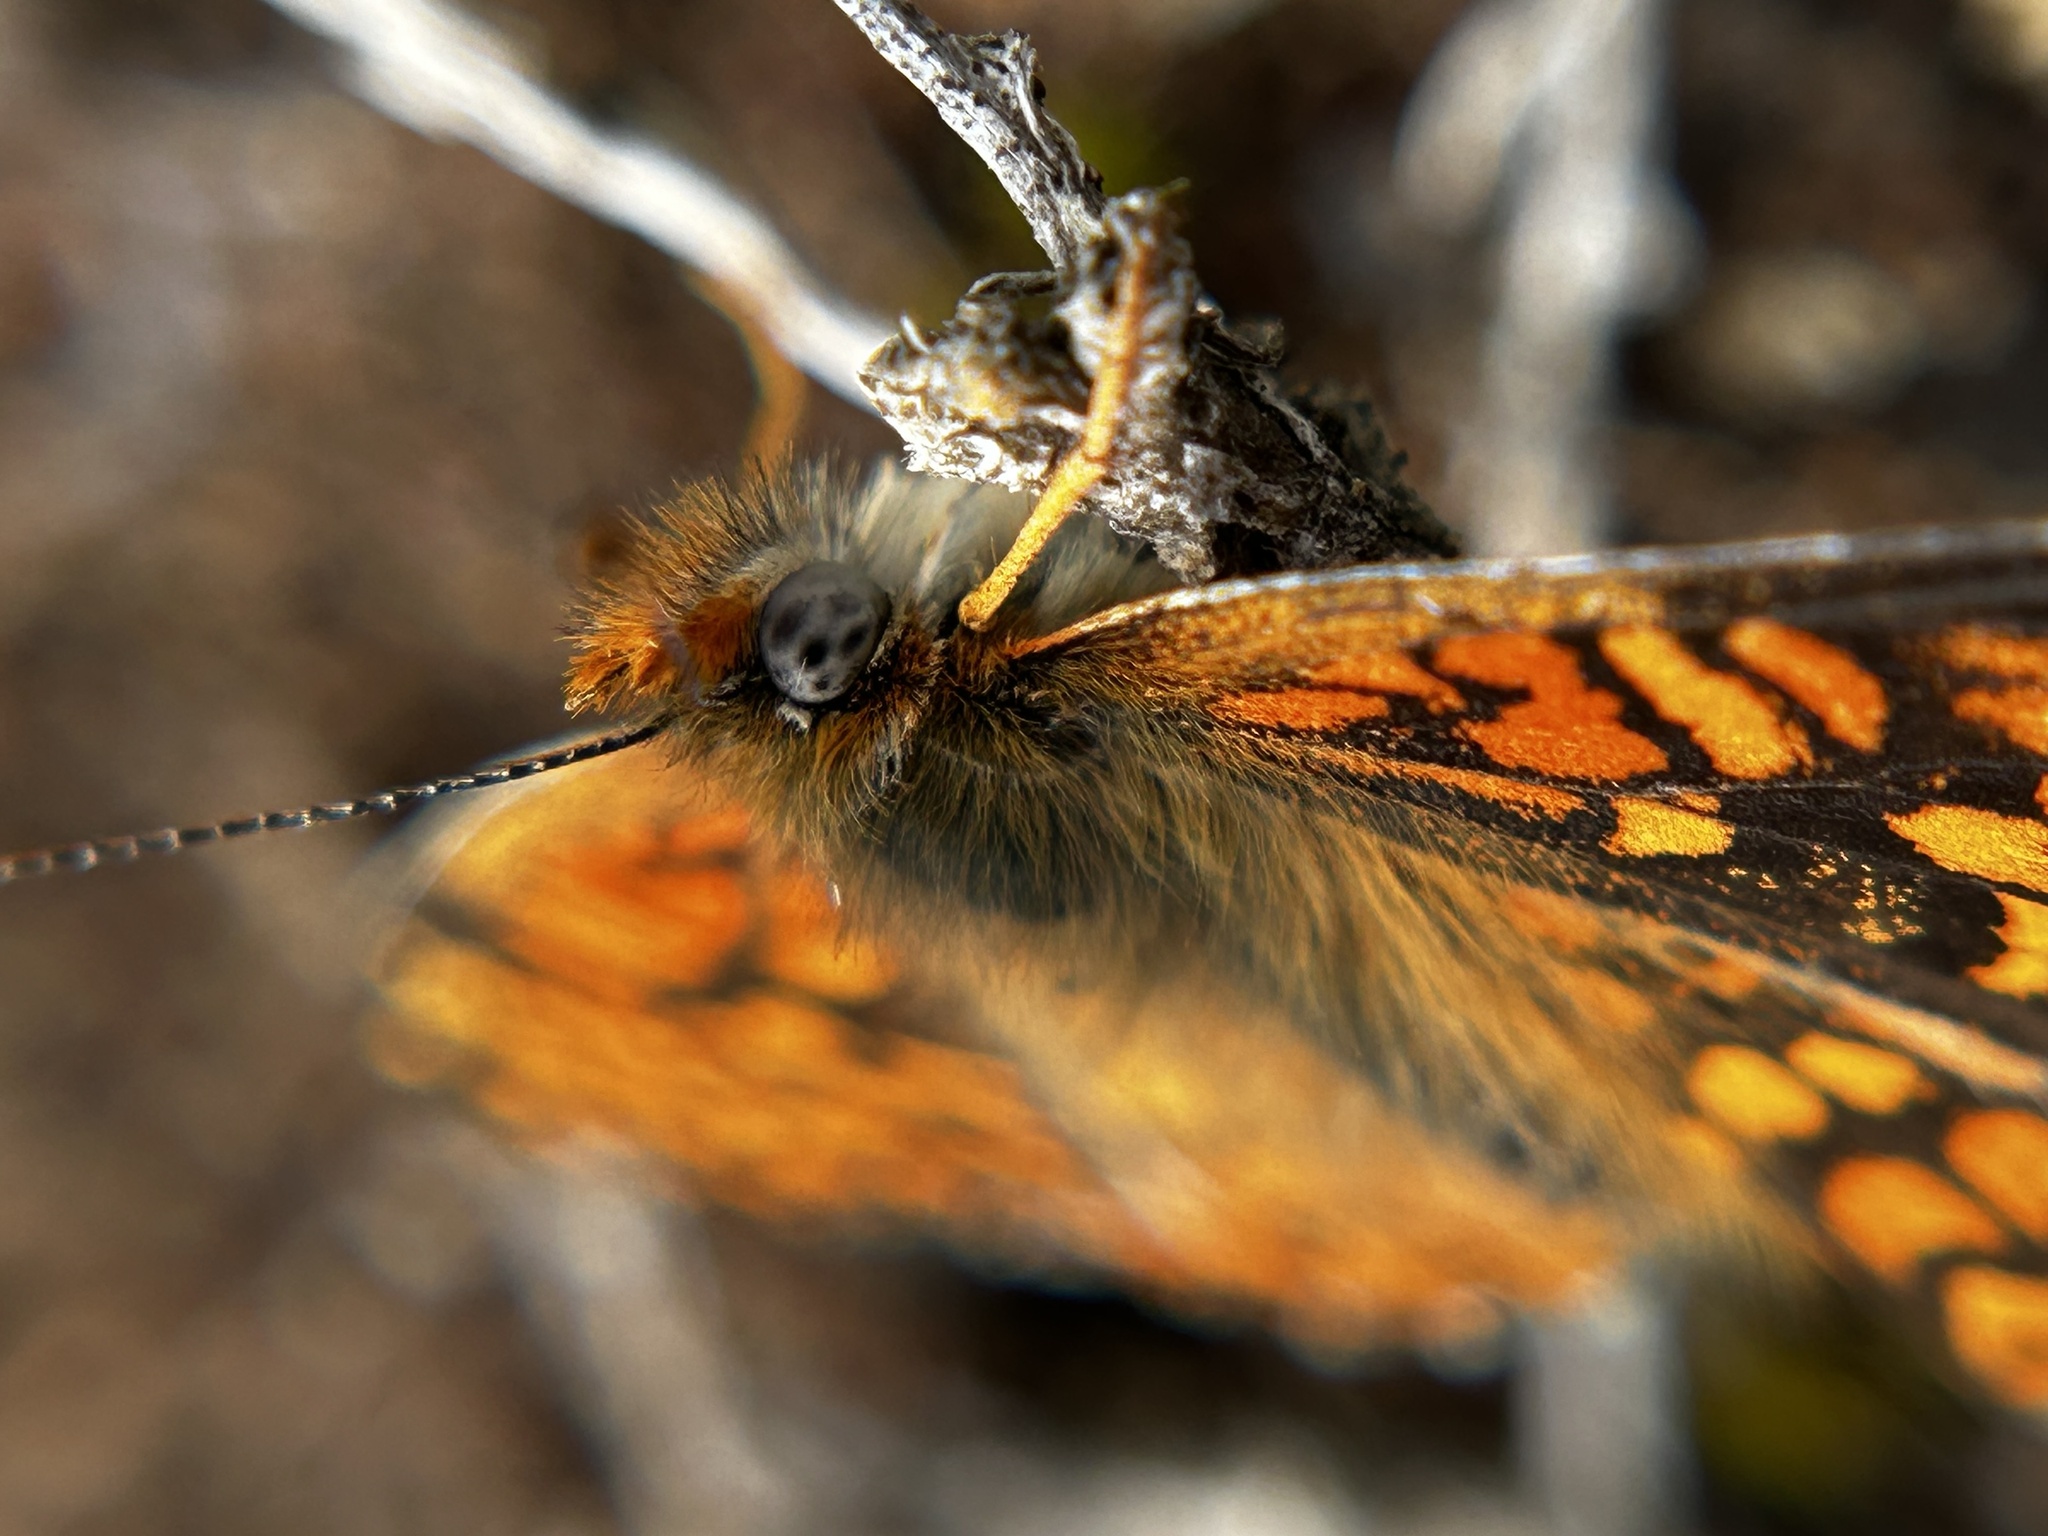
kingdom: Animalia
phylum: Arthropoda
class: Insecta
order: Lepidoptera
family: Nymphalidae
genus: Chlosyne
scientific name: Chlosyne gabbii
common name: Gabb's checkerspot
